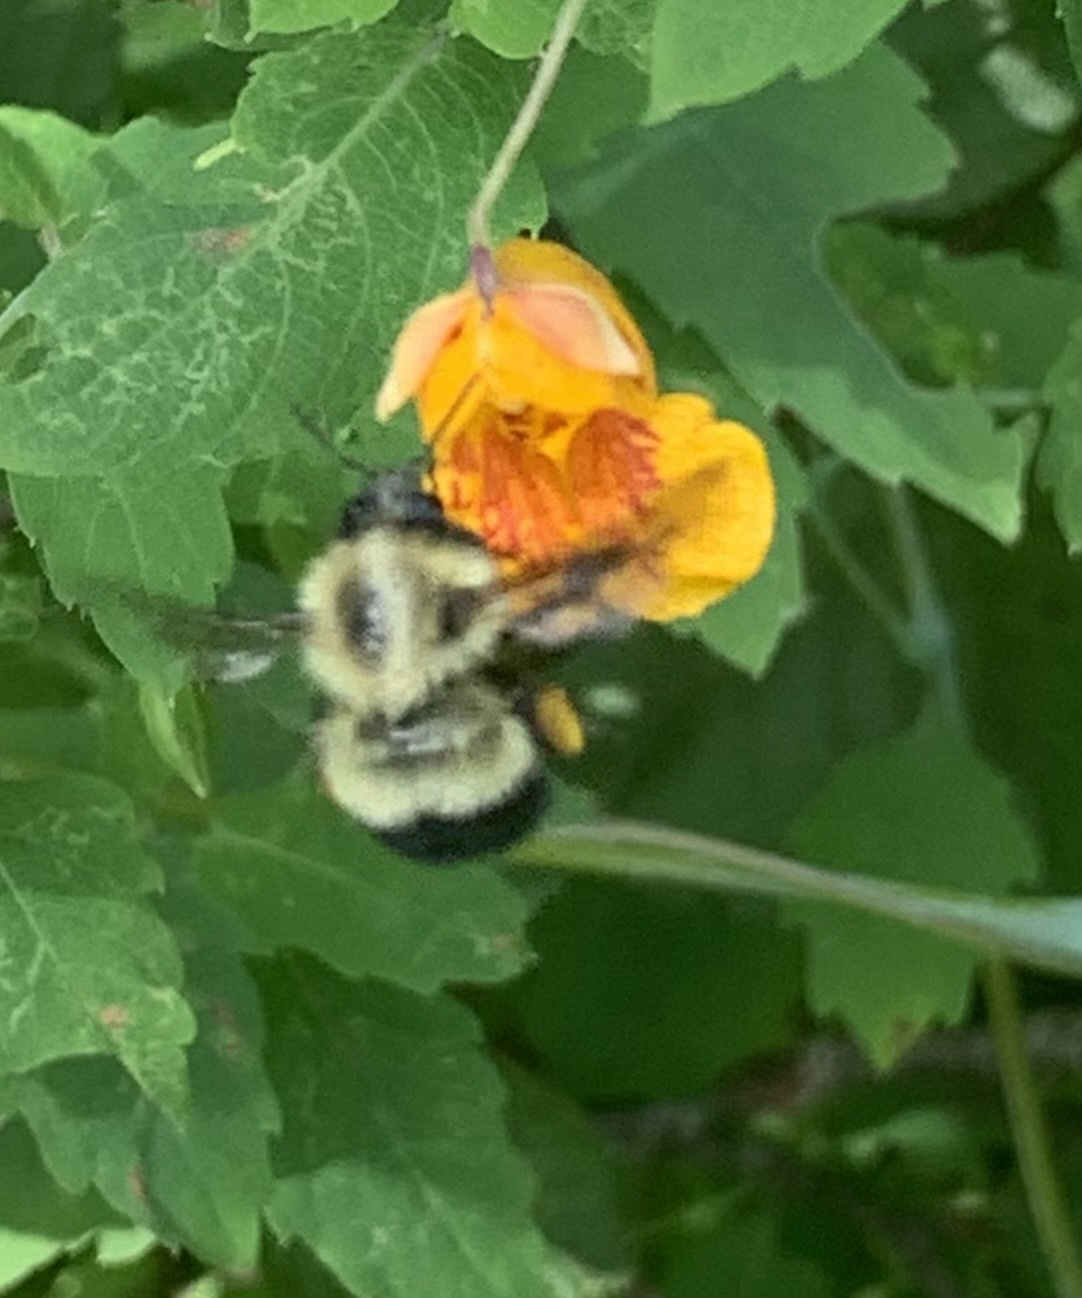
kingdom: Animalia
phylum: Arthropoda
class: Insecta
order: Hymenoptera
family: Apidae
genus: Pyrobombus
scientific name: Pyrobombus
